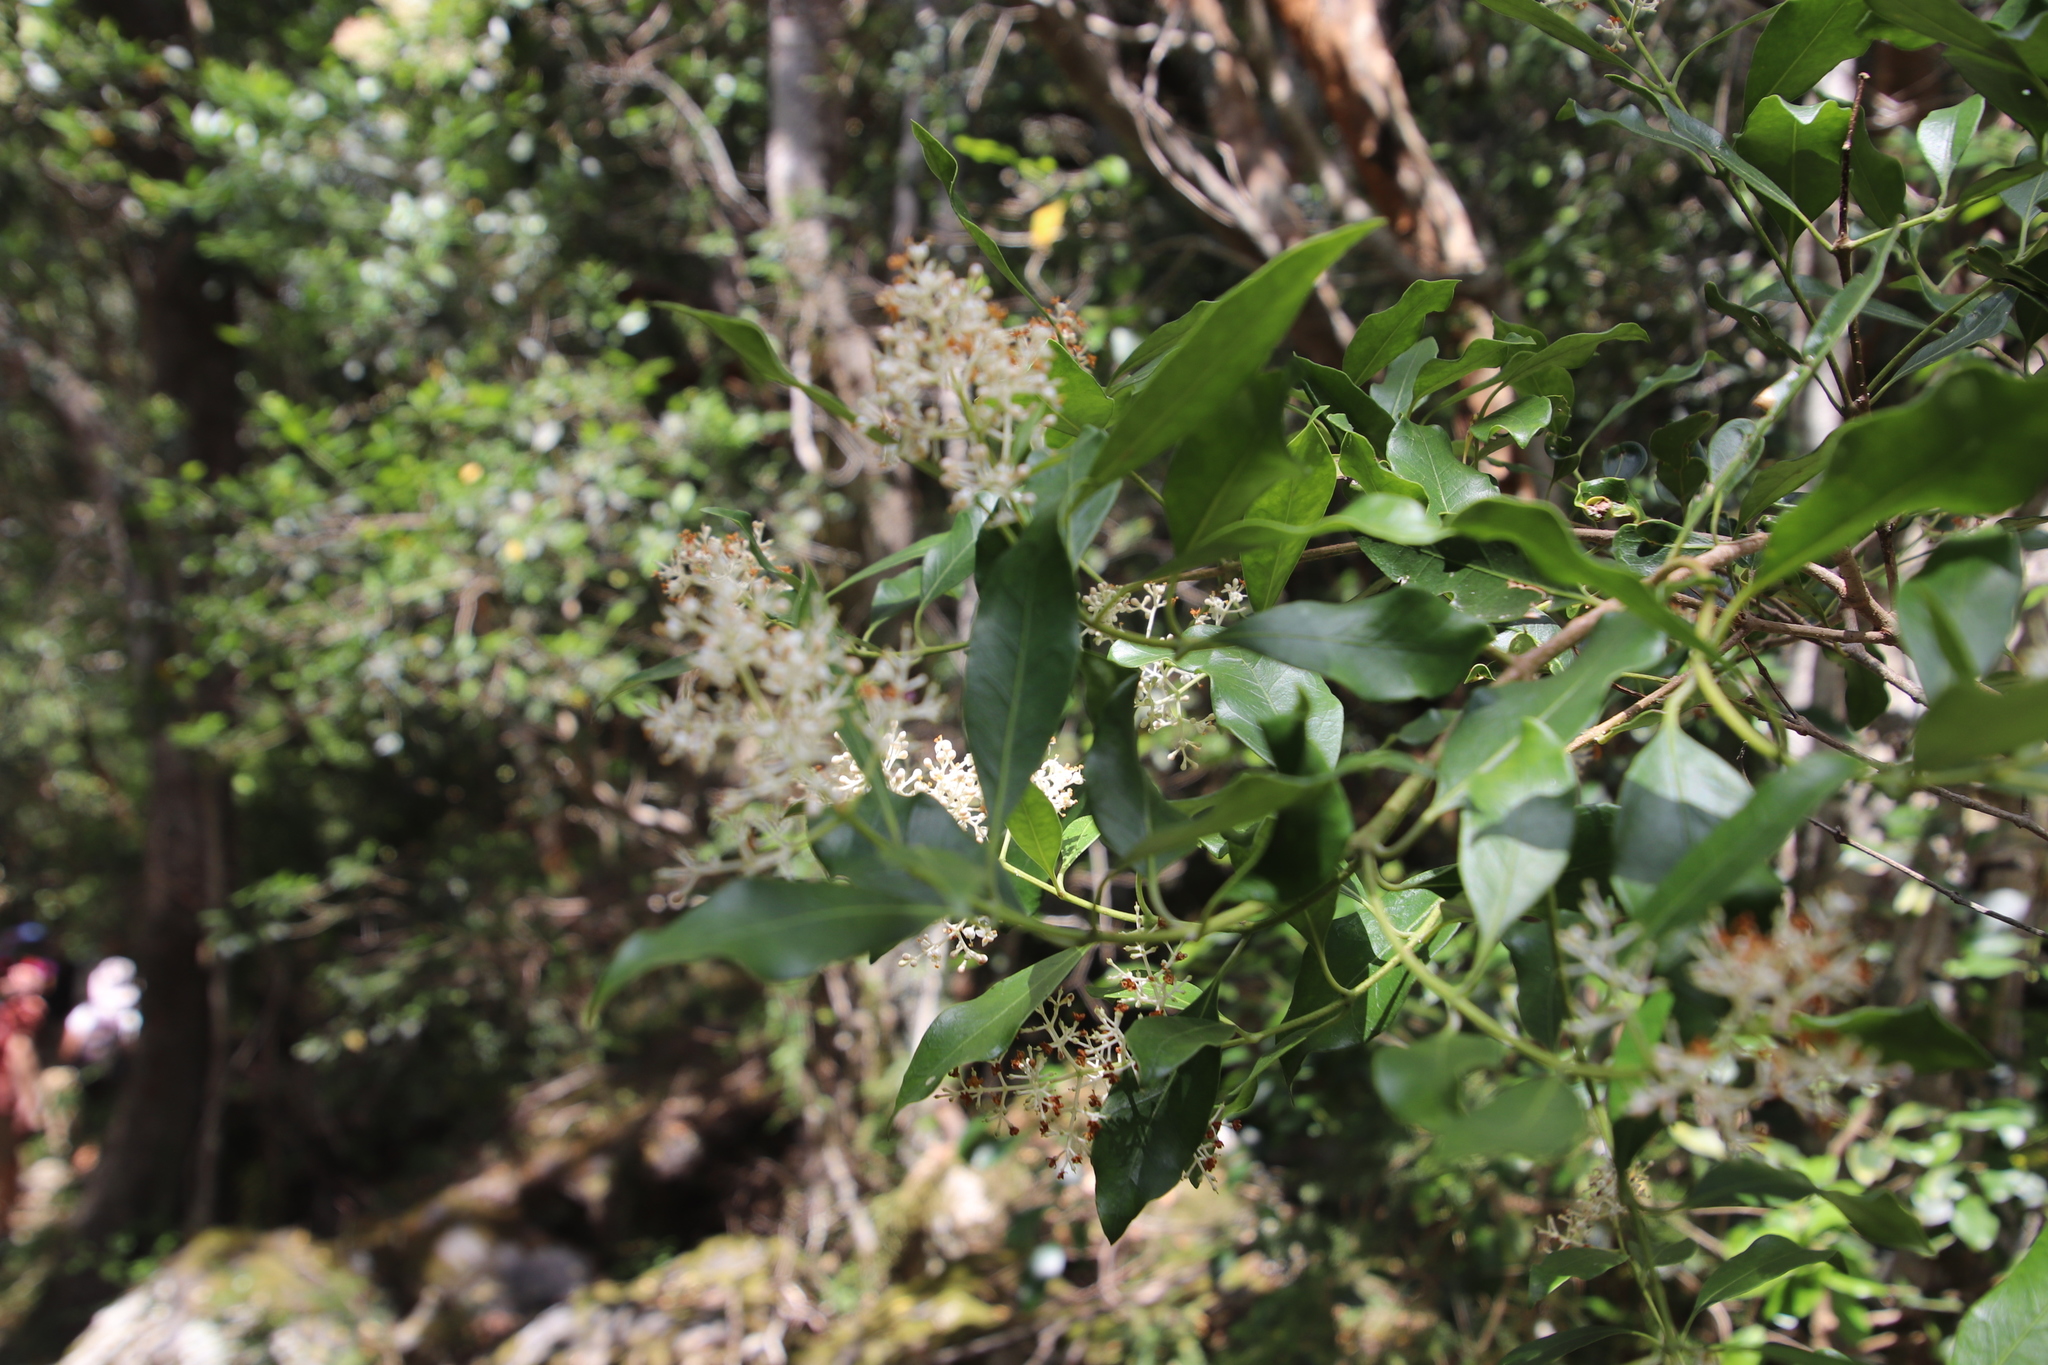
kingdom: Plantae
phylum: Tracheophyta
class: Magnoliopsida
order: Lamiales
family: Oleaceae
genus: Olea
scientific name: Olea capensis
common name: Black ironwood
